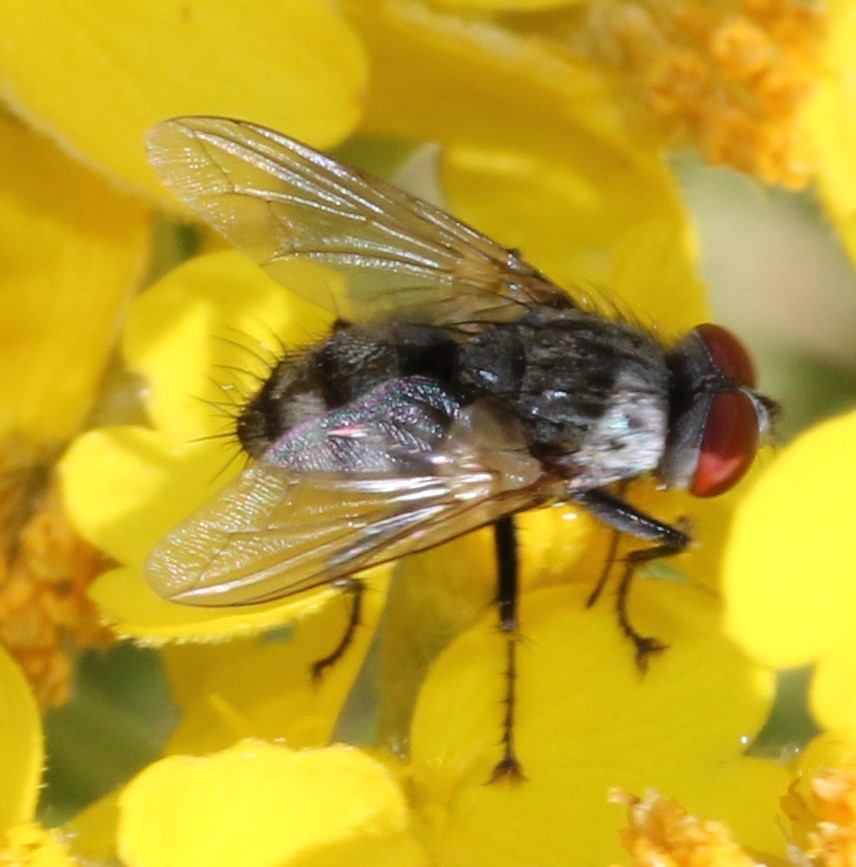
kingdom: Animalia
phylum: Arthropoda
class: Insecta
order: Diptera
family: Tachinidae
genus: Nimioglossa
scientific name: Nimioglossa planicosta
